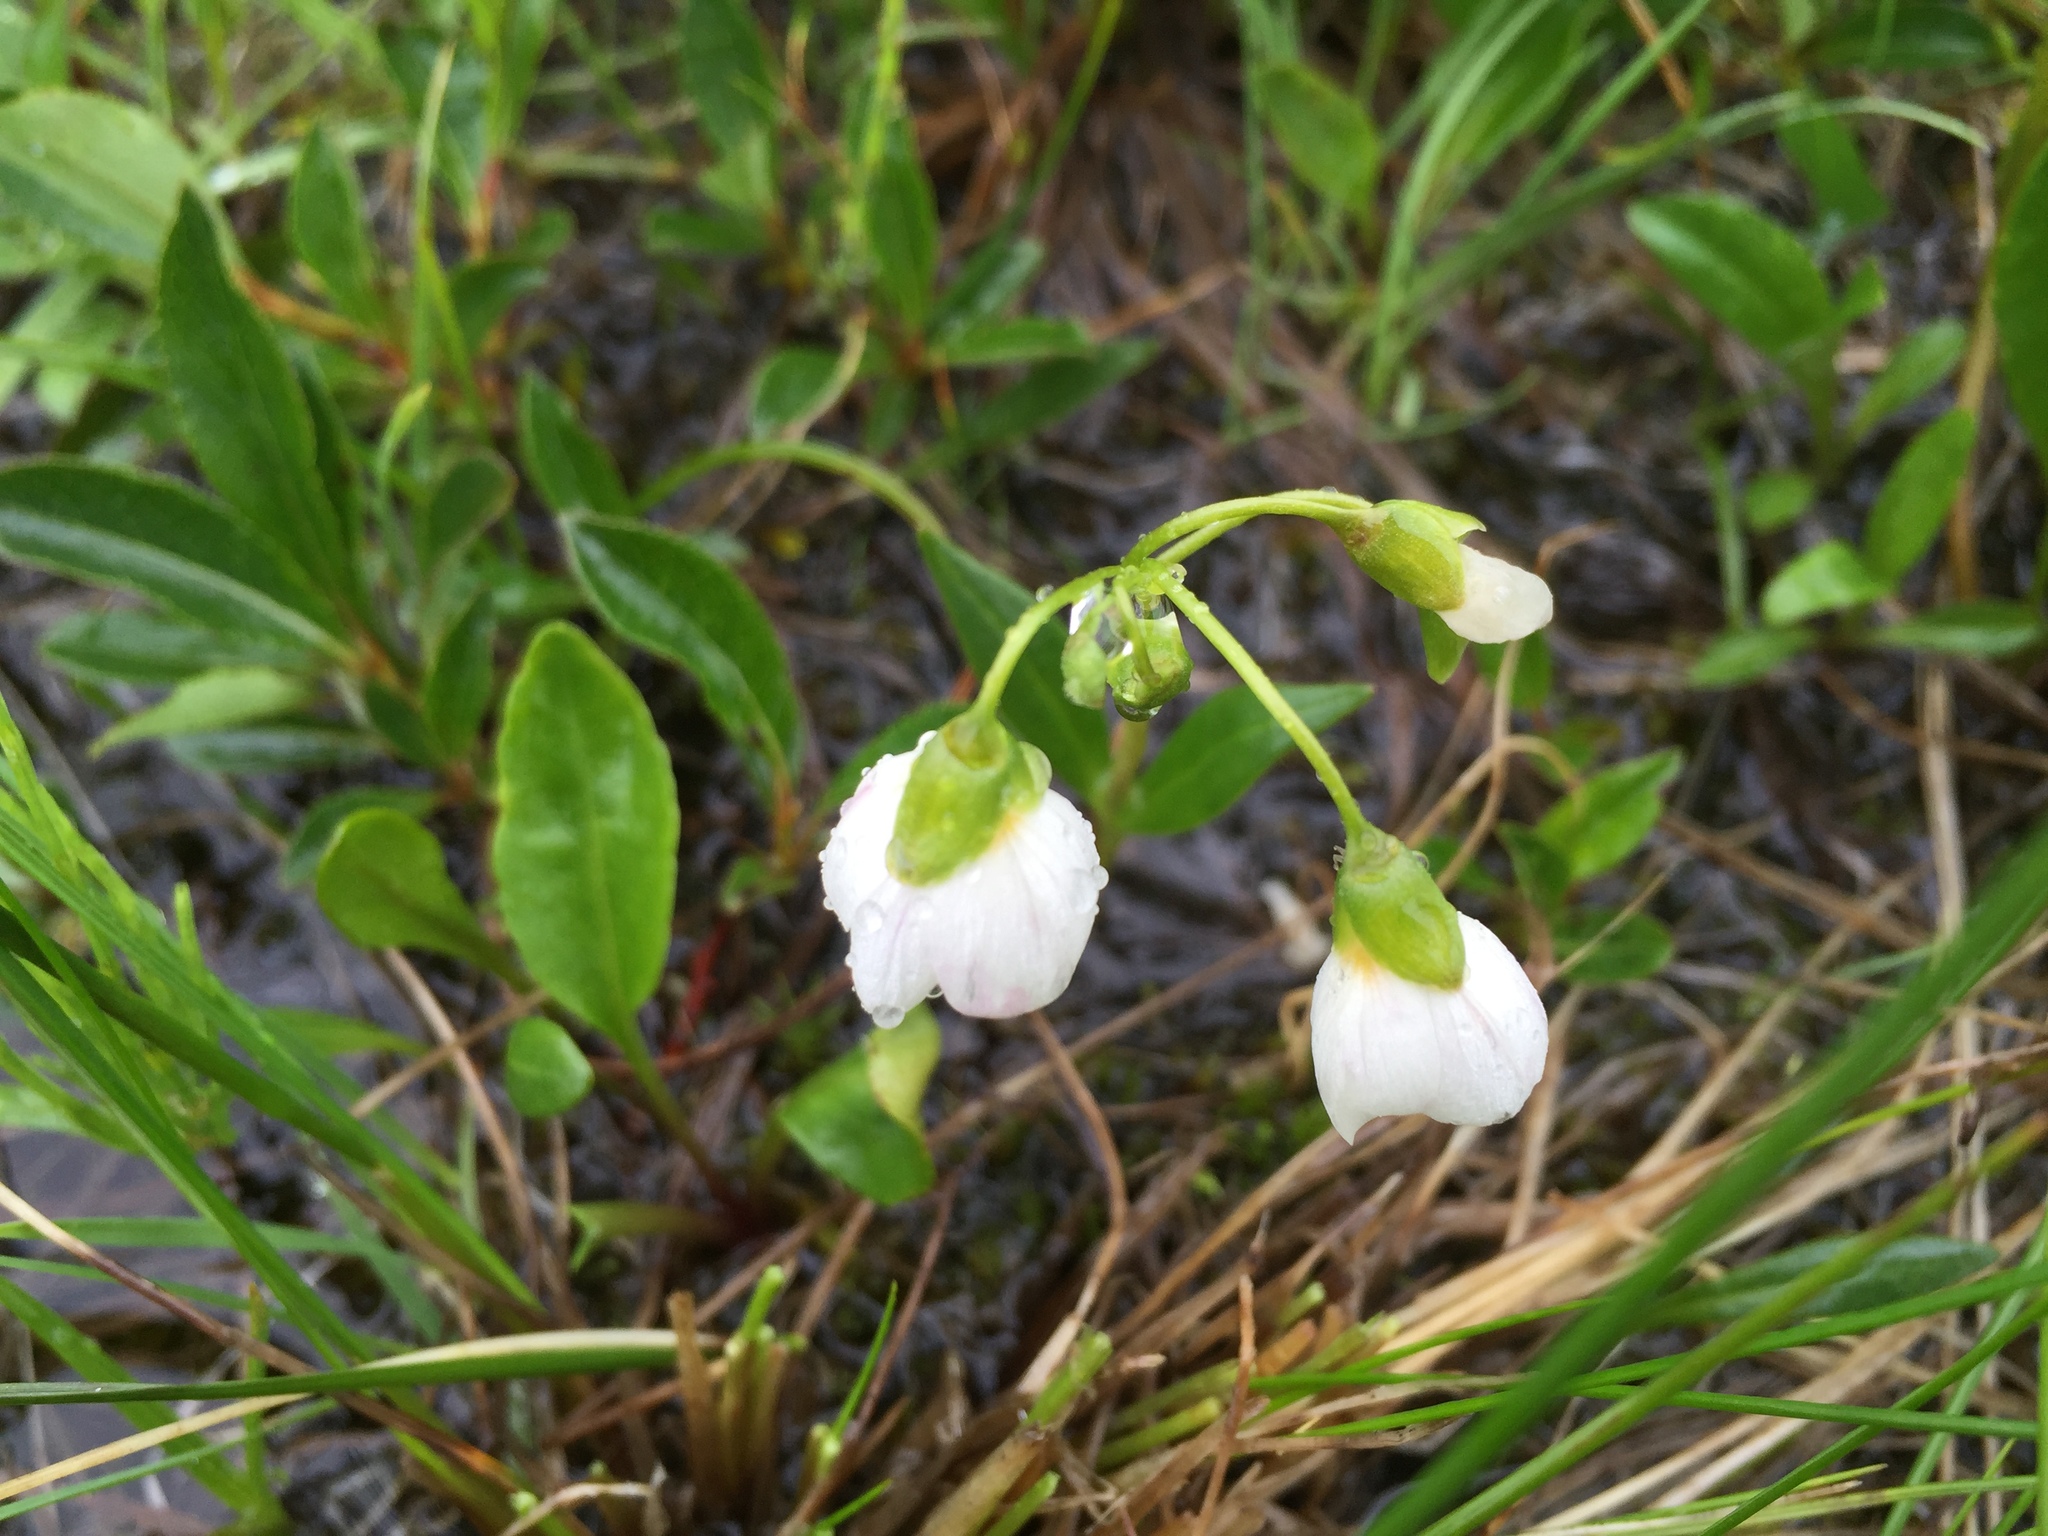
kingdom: Plantae
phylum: Tracheophyta
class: Magnoliopsida
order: Caryophyllales
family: Montiaceae
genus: Claytonia
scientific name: Claytonia tuberosa
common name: Beringian spring beauty
